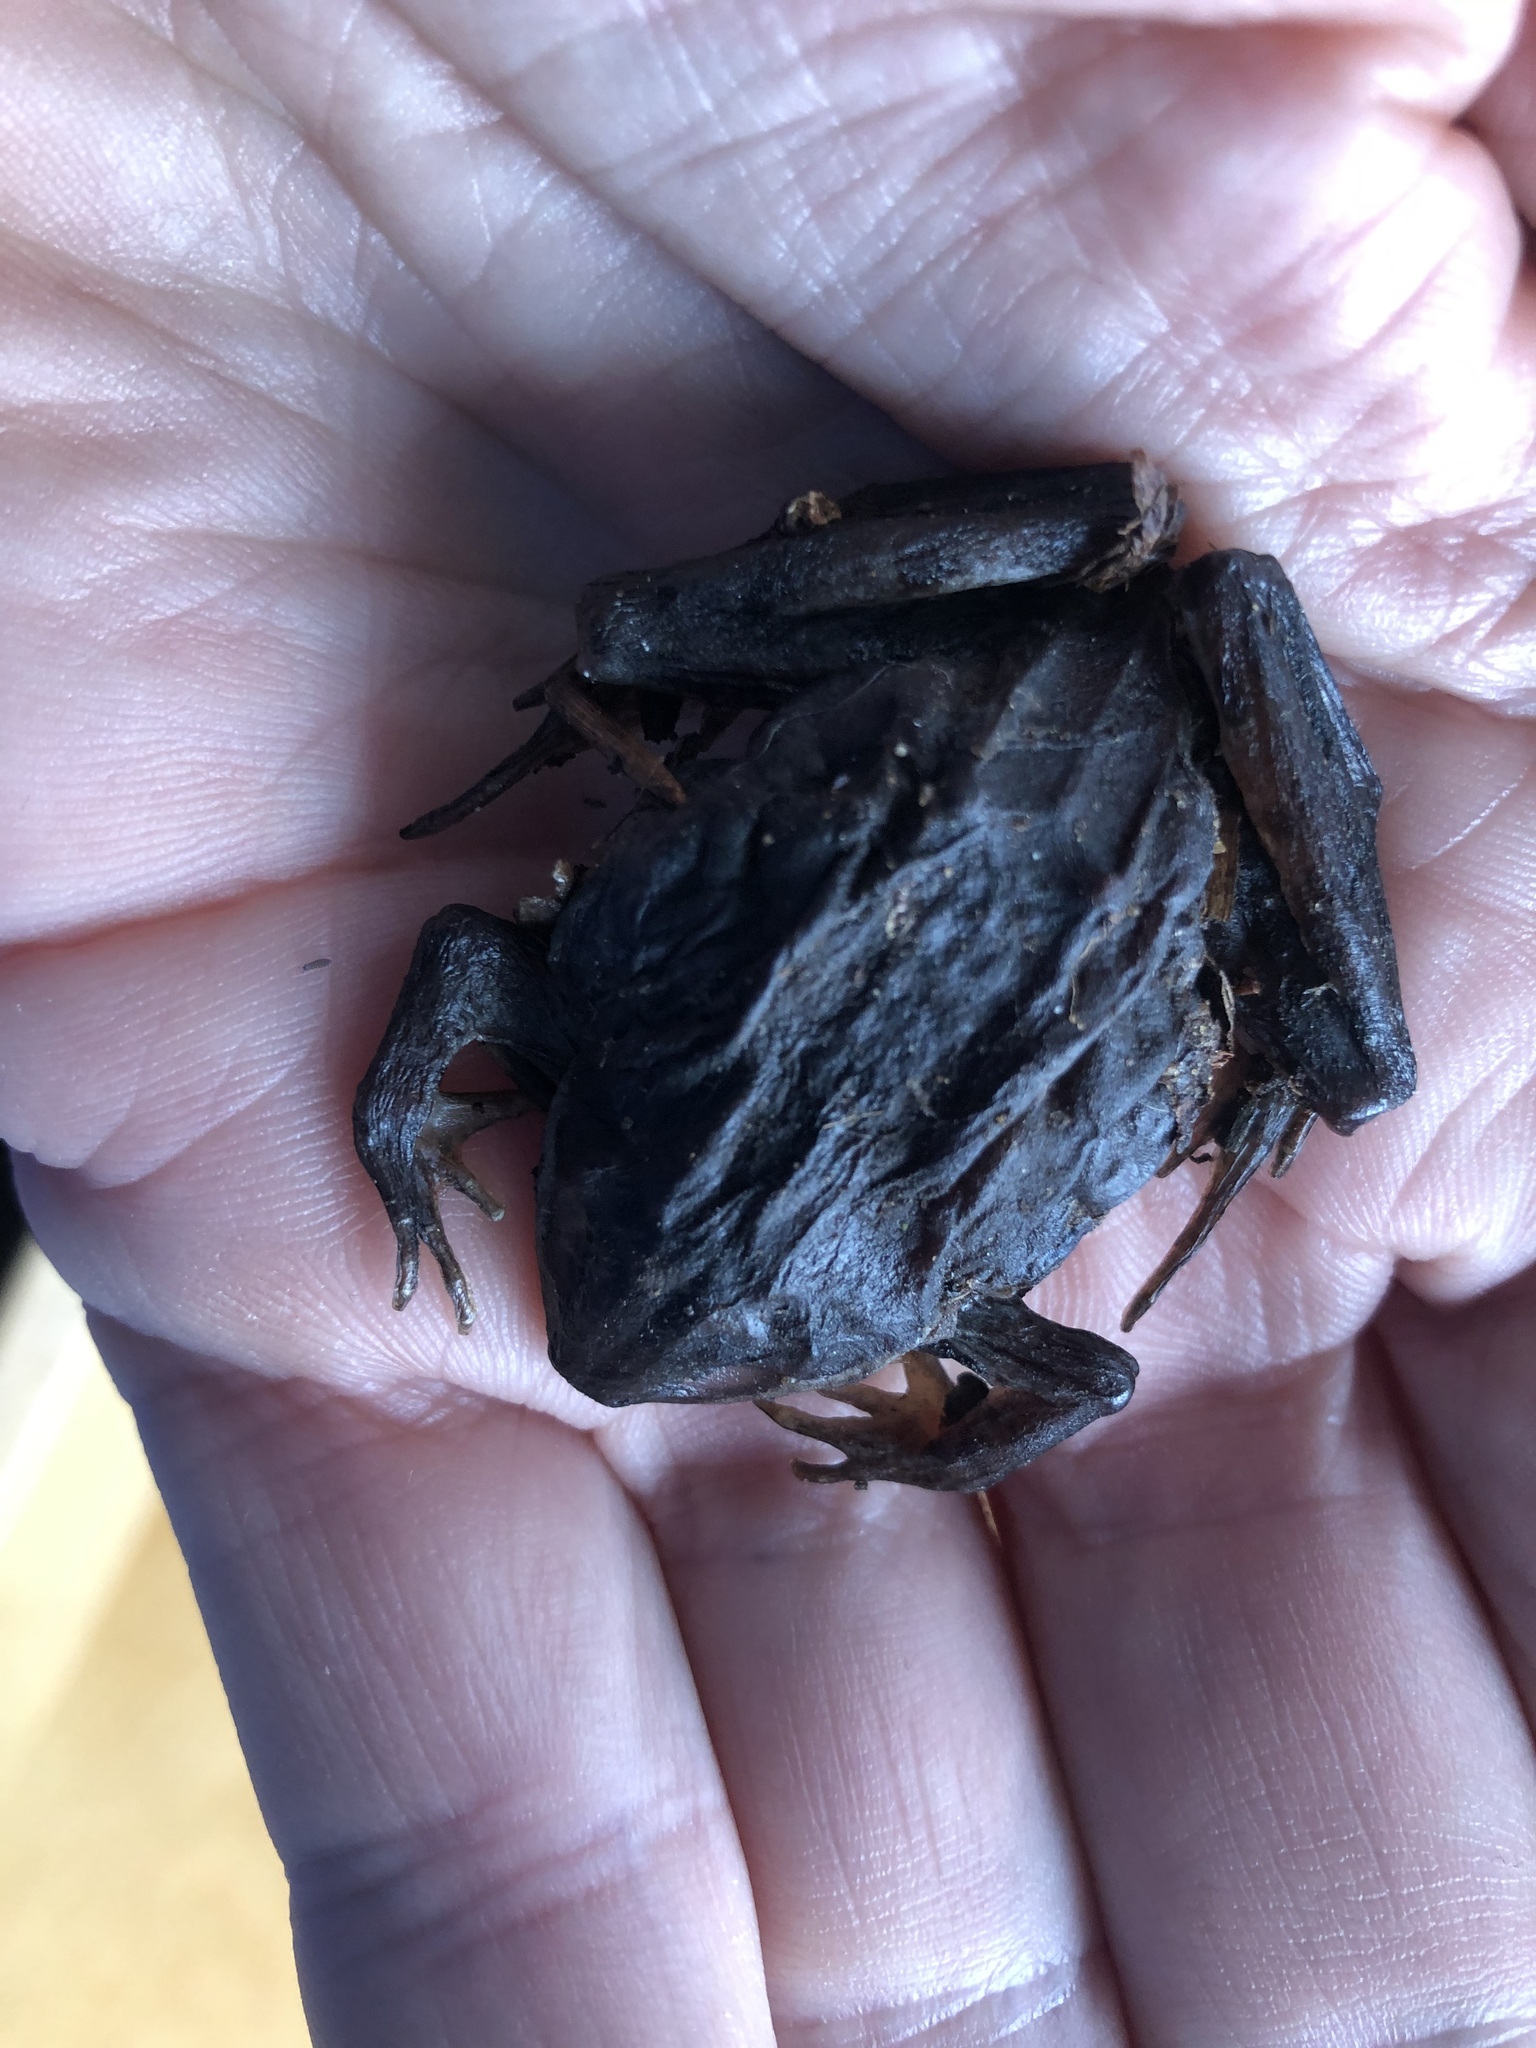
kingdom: Animalia
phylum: Chordata
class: Amphibia
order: Anura
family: Ranidae
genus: Lithobates
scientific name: Lithobates sylvaticus
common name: Wood frog
